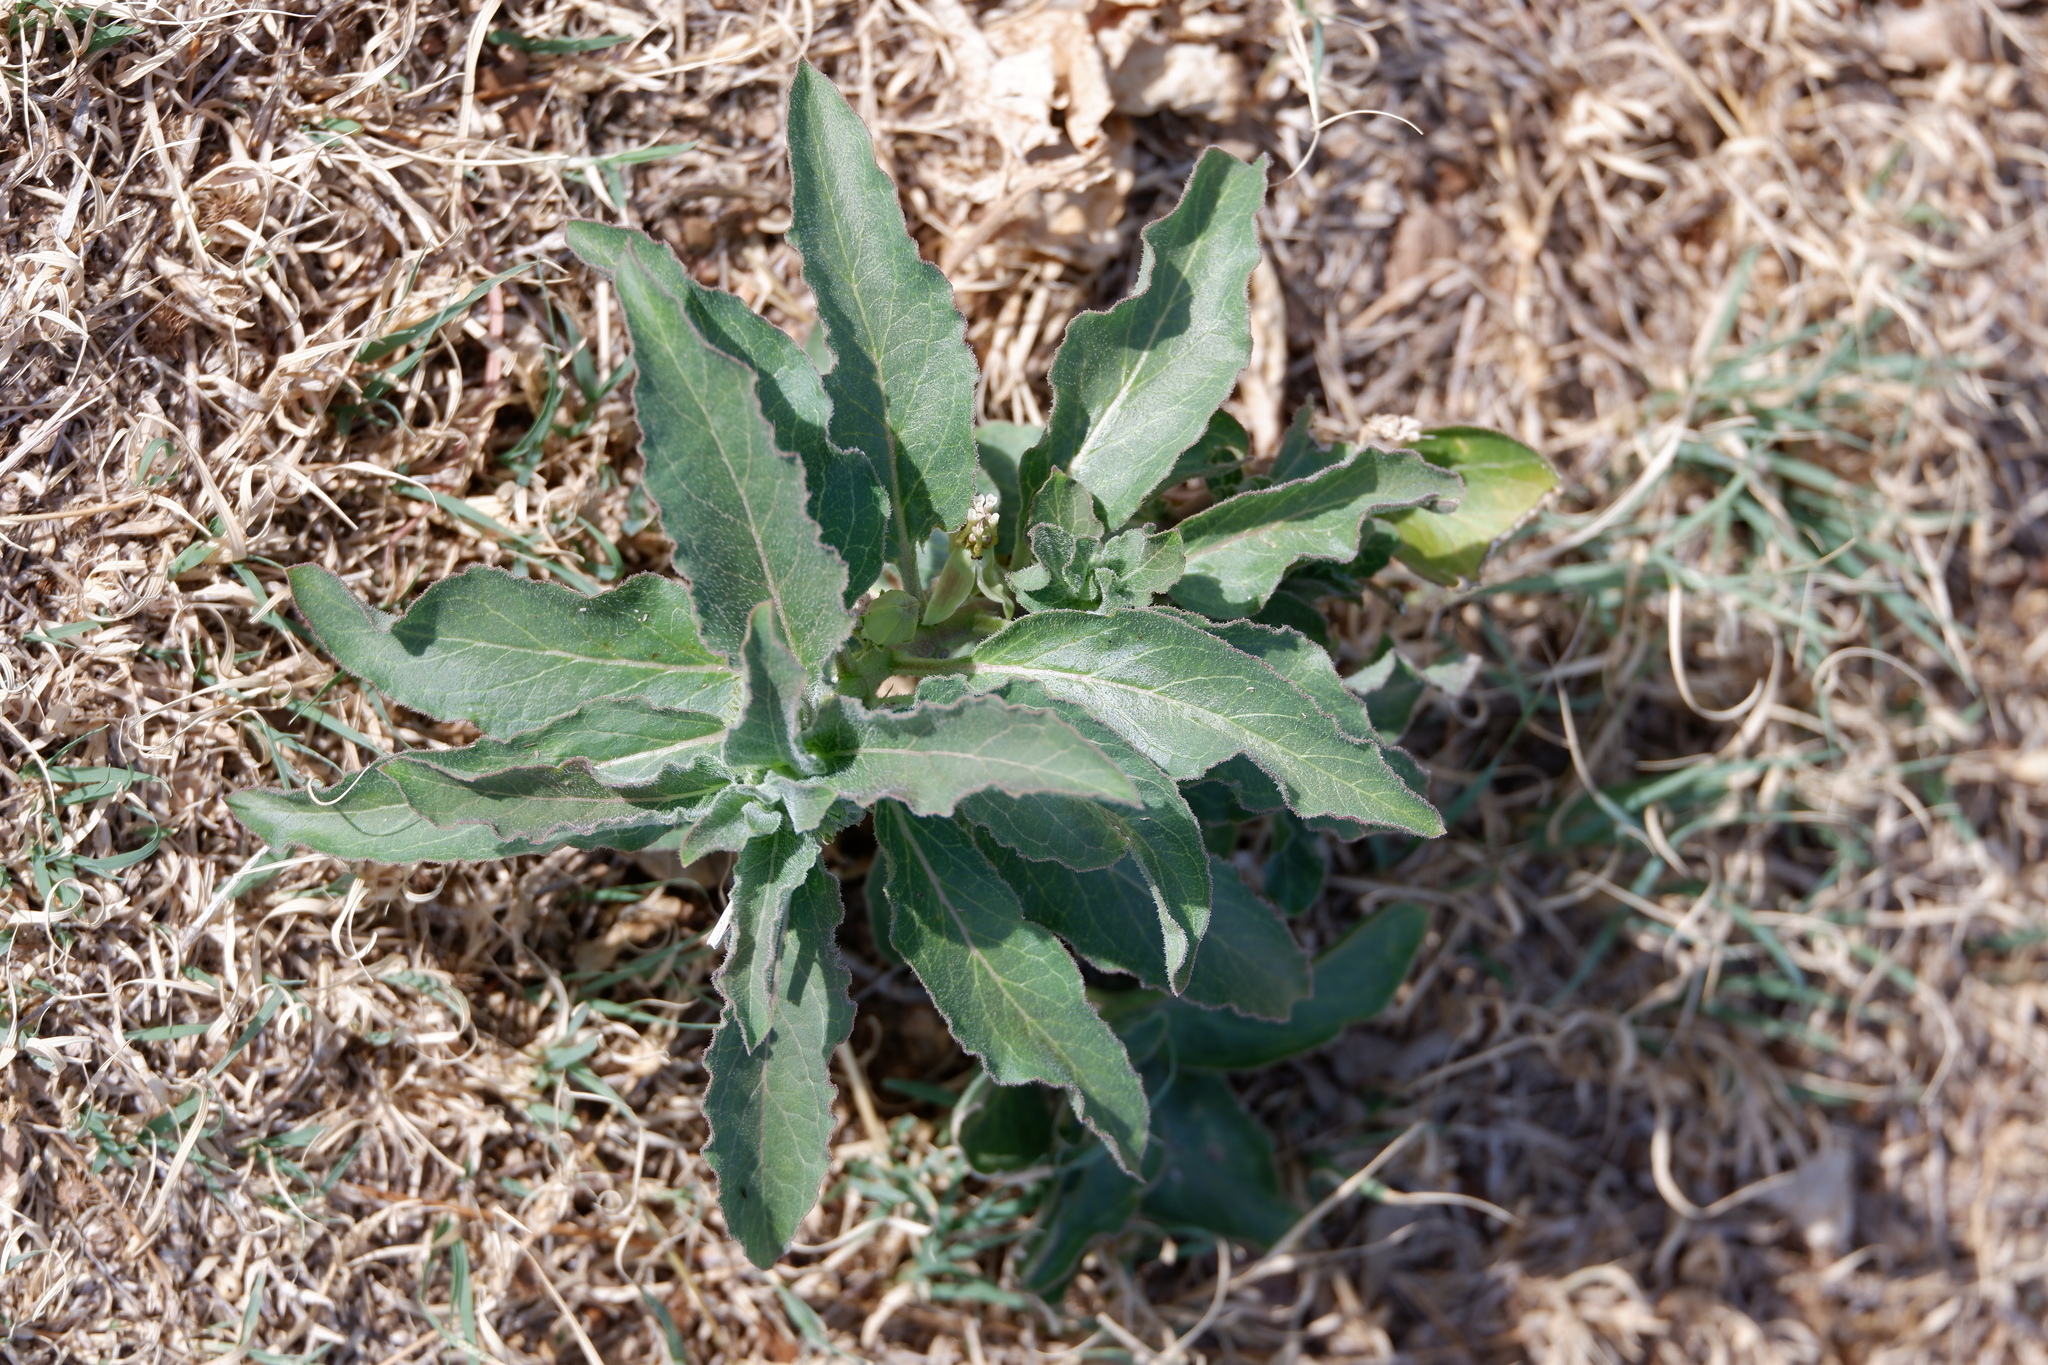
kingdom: Plantae
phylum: Tracheophyta
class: Magnoliopsida
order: Gentianales
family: Apocynaceae
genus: Asclepias
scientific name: Asclepias oenotheroides
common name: Zizotes milkweed
